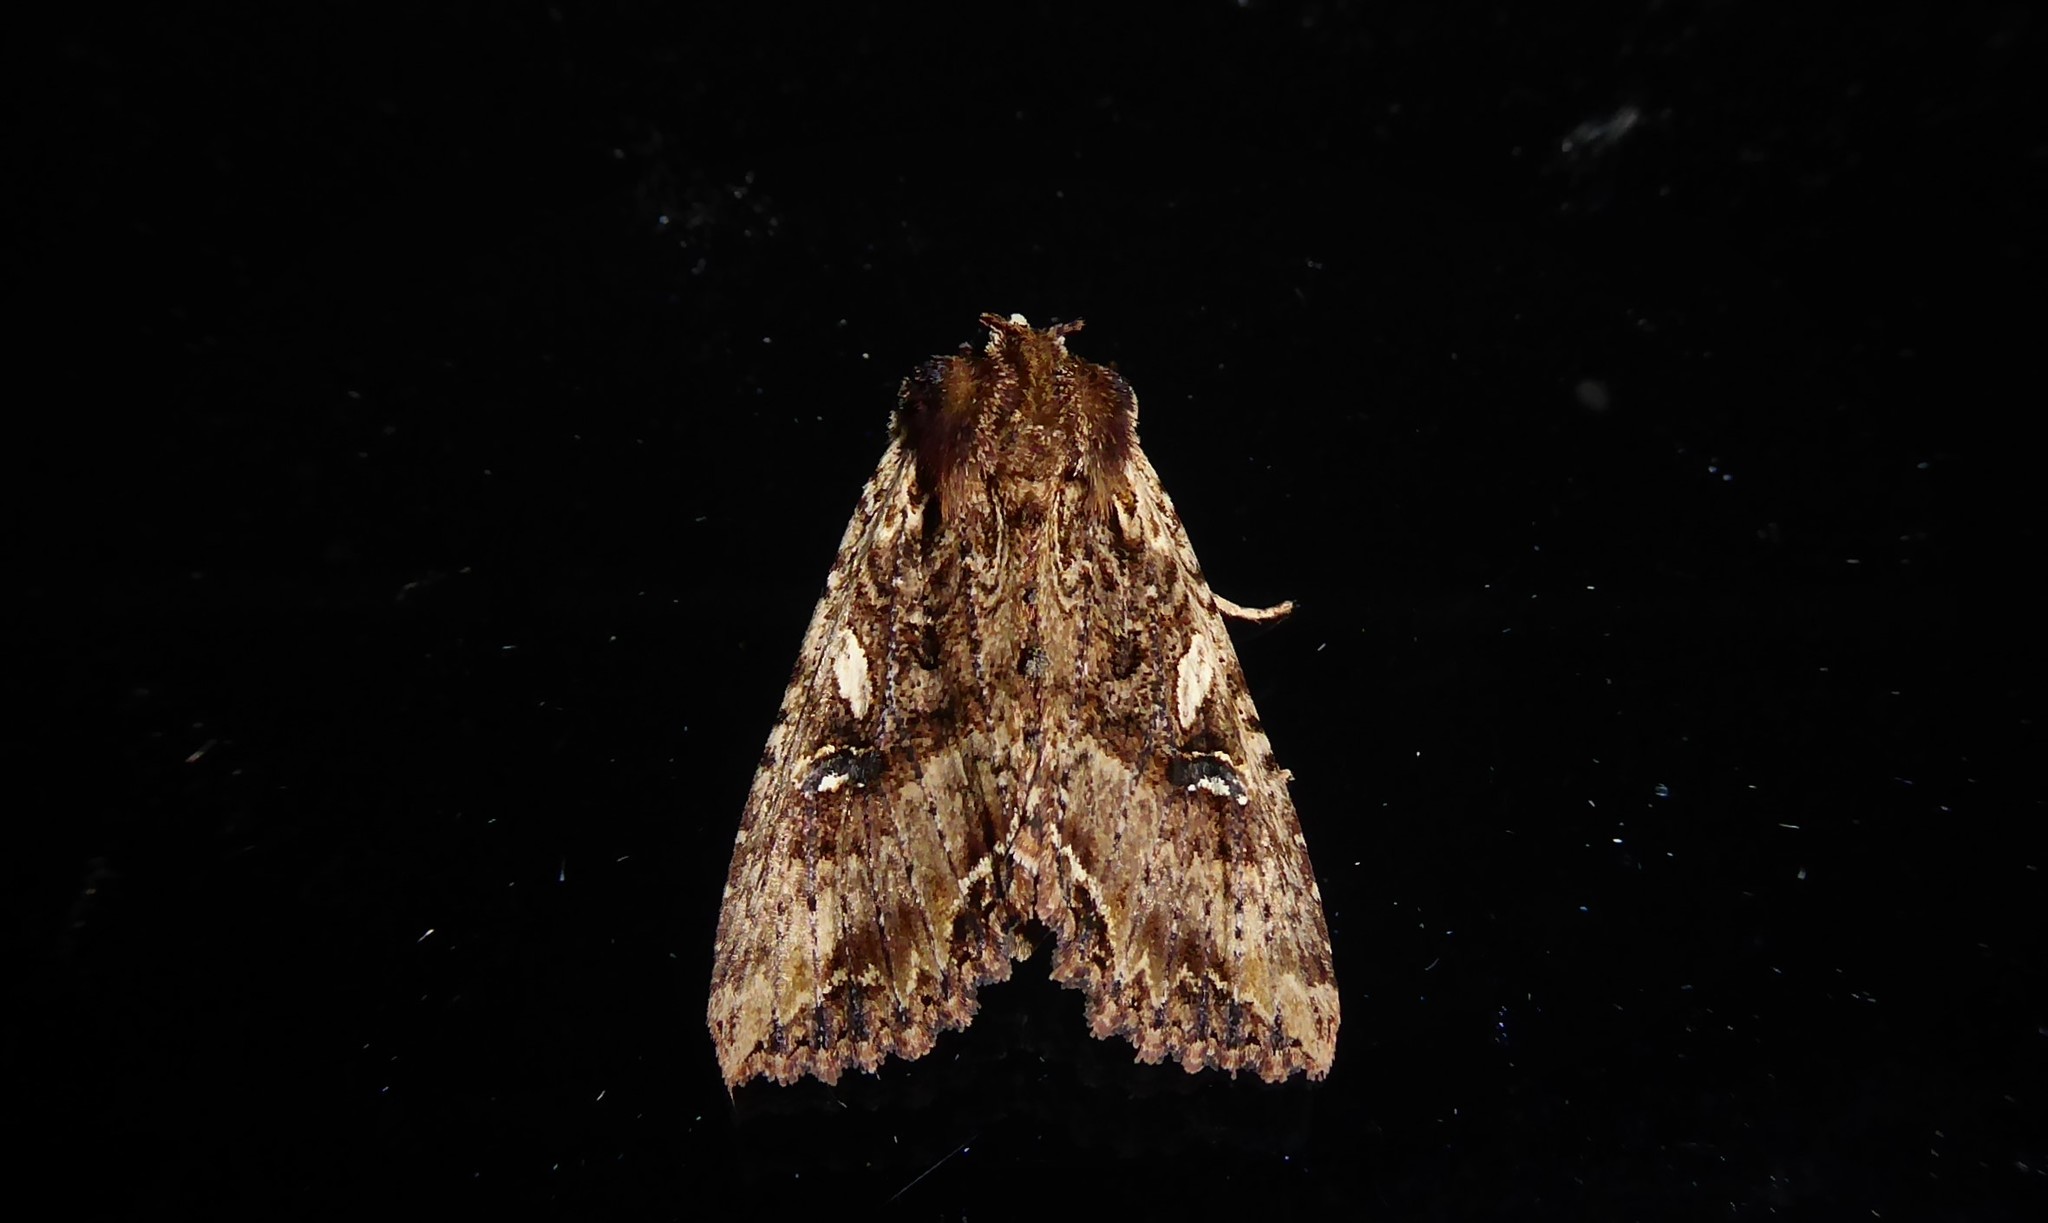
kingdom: Animalia
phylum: Arthropoda
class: Insecta
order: Lepidoptera
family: Noctuidae
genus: Meterana
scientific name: Meterana stipata
